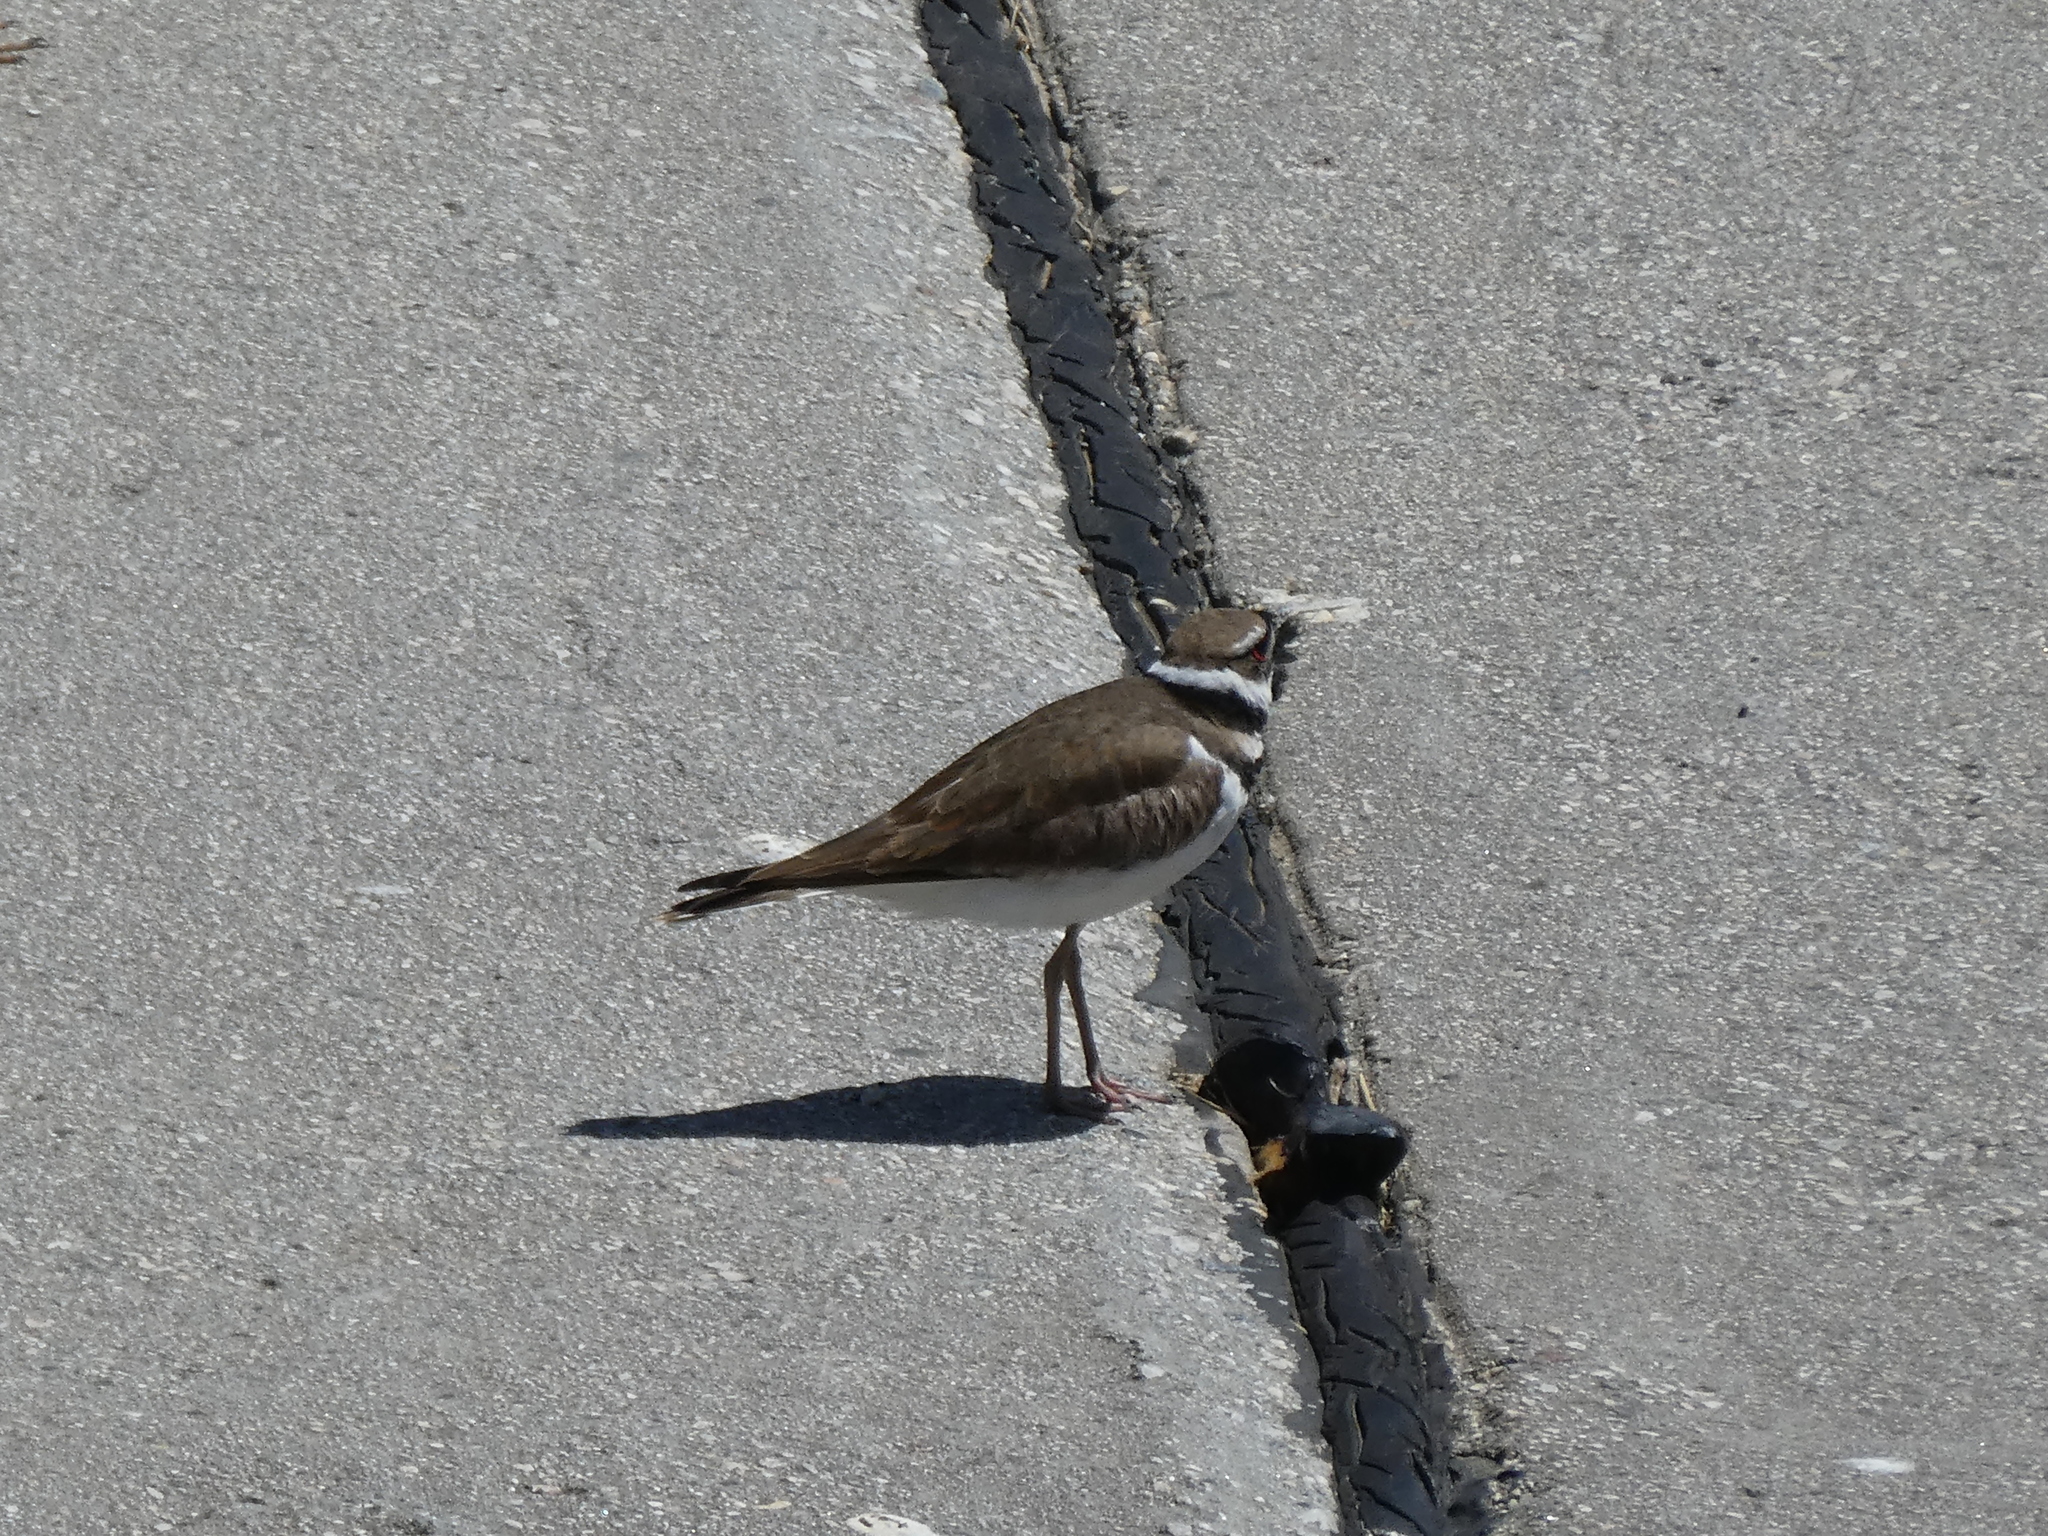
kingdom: Animalia
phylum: Chordata
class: Aves
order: Charadriiformes
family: Charadriidae
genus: Charadrius
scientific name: Charadrius vociferus
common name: Killdeer
